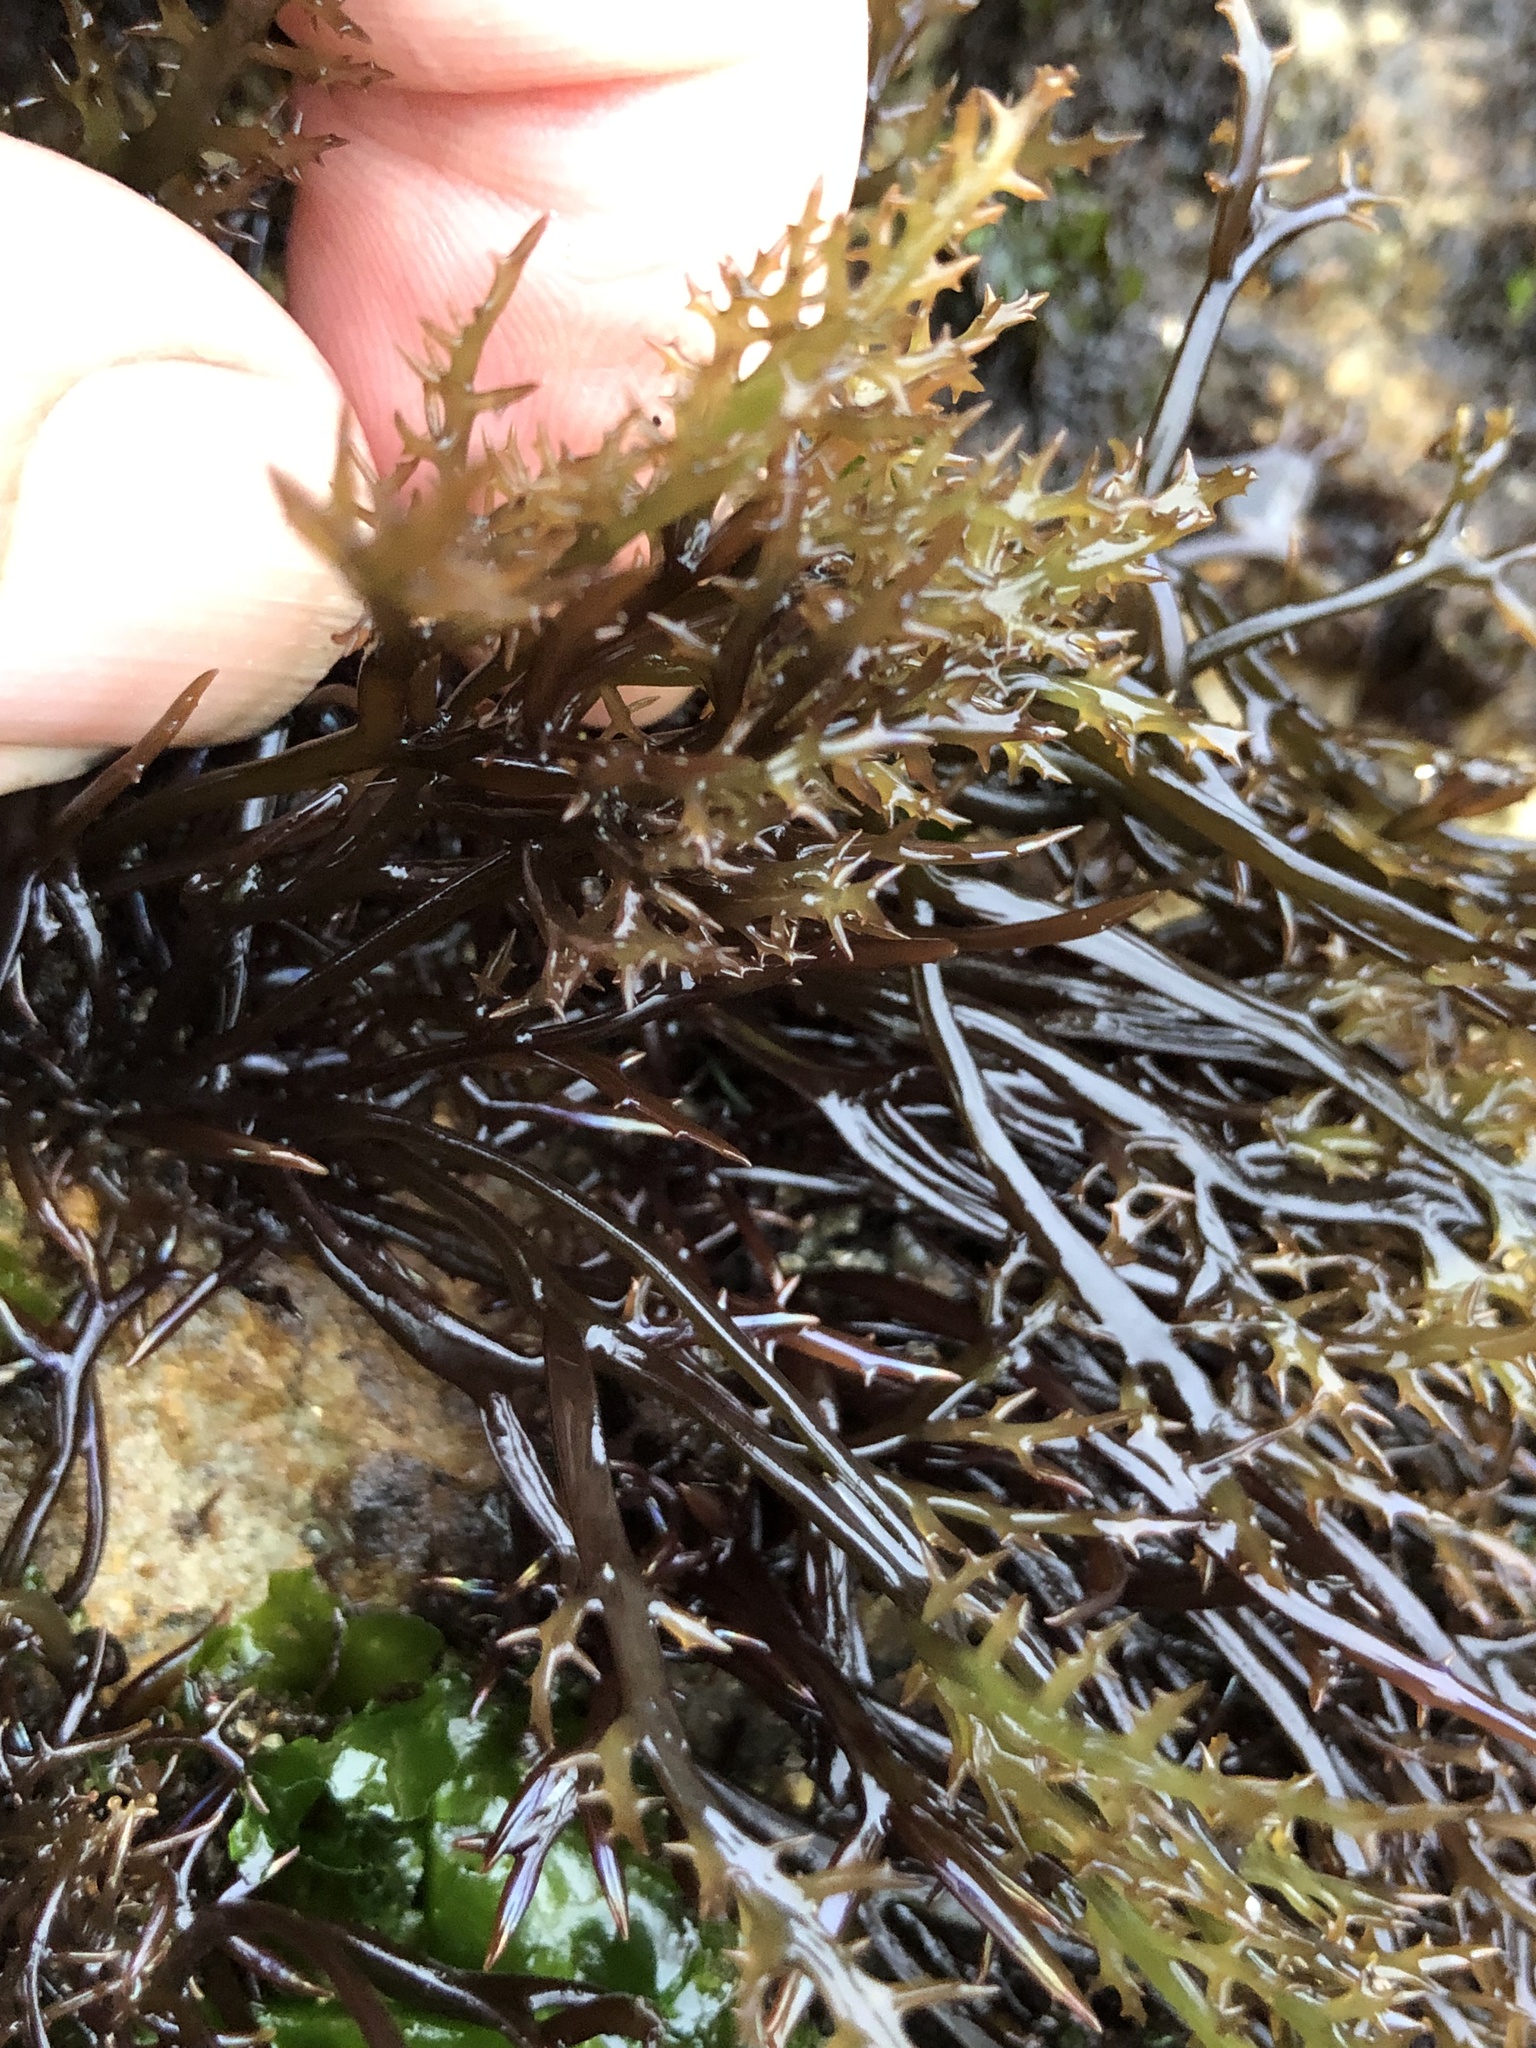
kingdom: Plantae
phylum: Rhodophyta
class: Florideophyceae
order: Gigartinales
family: Gigartinaceae
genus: Chondracanthus
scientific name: Chondracanthus canaliculatus
